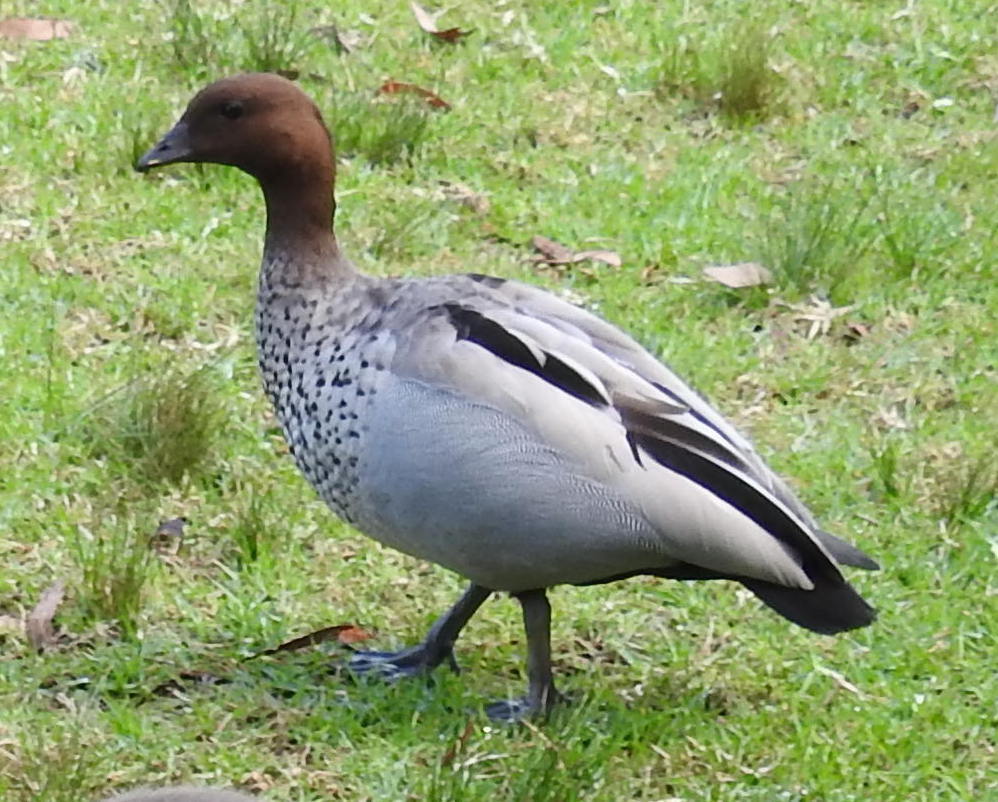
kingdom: Animalia
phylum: Chordata
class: Aves
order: Anseriformes
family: Anatidae
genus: Chenonetta
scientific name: Chenonetta jubata
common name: Maned duck
